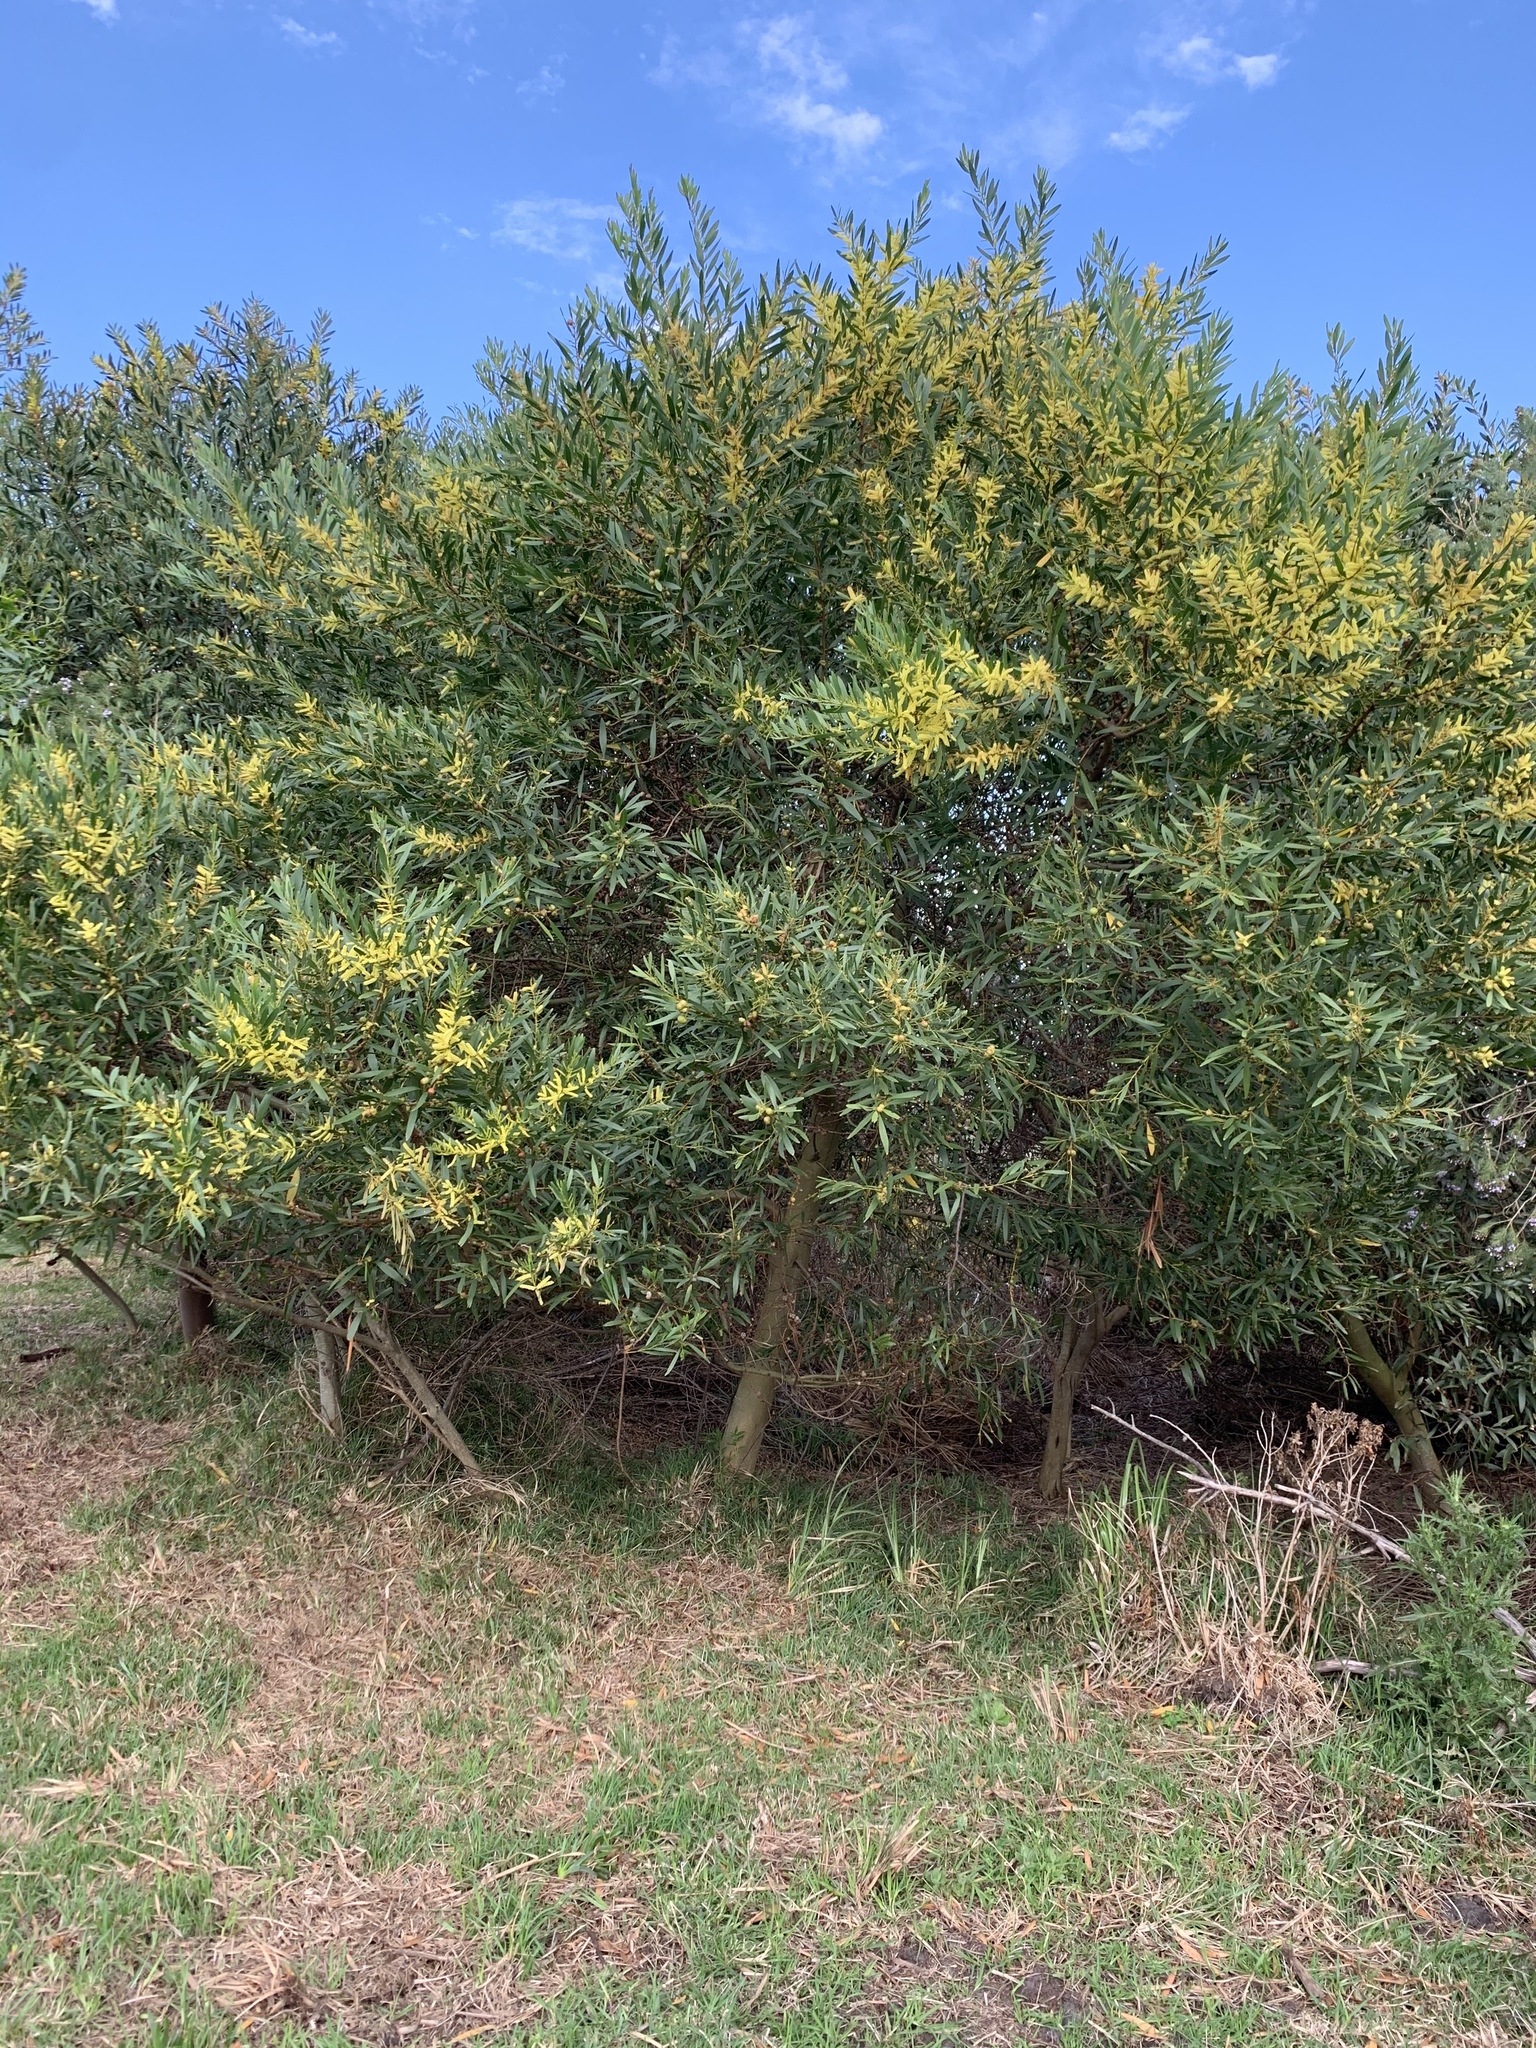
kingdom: Plantae
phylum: Tracheophyta
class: Magnoliopsida
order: Fabales
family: Fabaceae
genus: Acacia
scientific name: Acacia longifolia
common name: Sydney golden wattle
